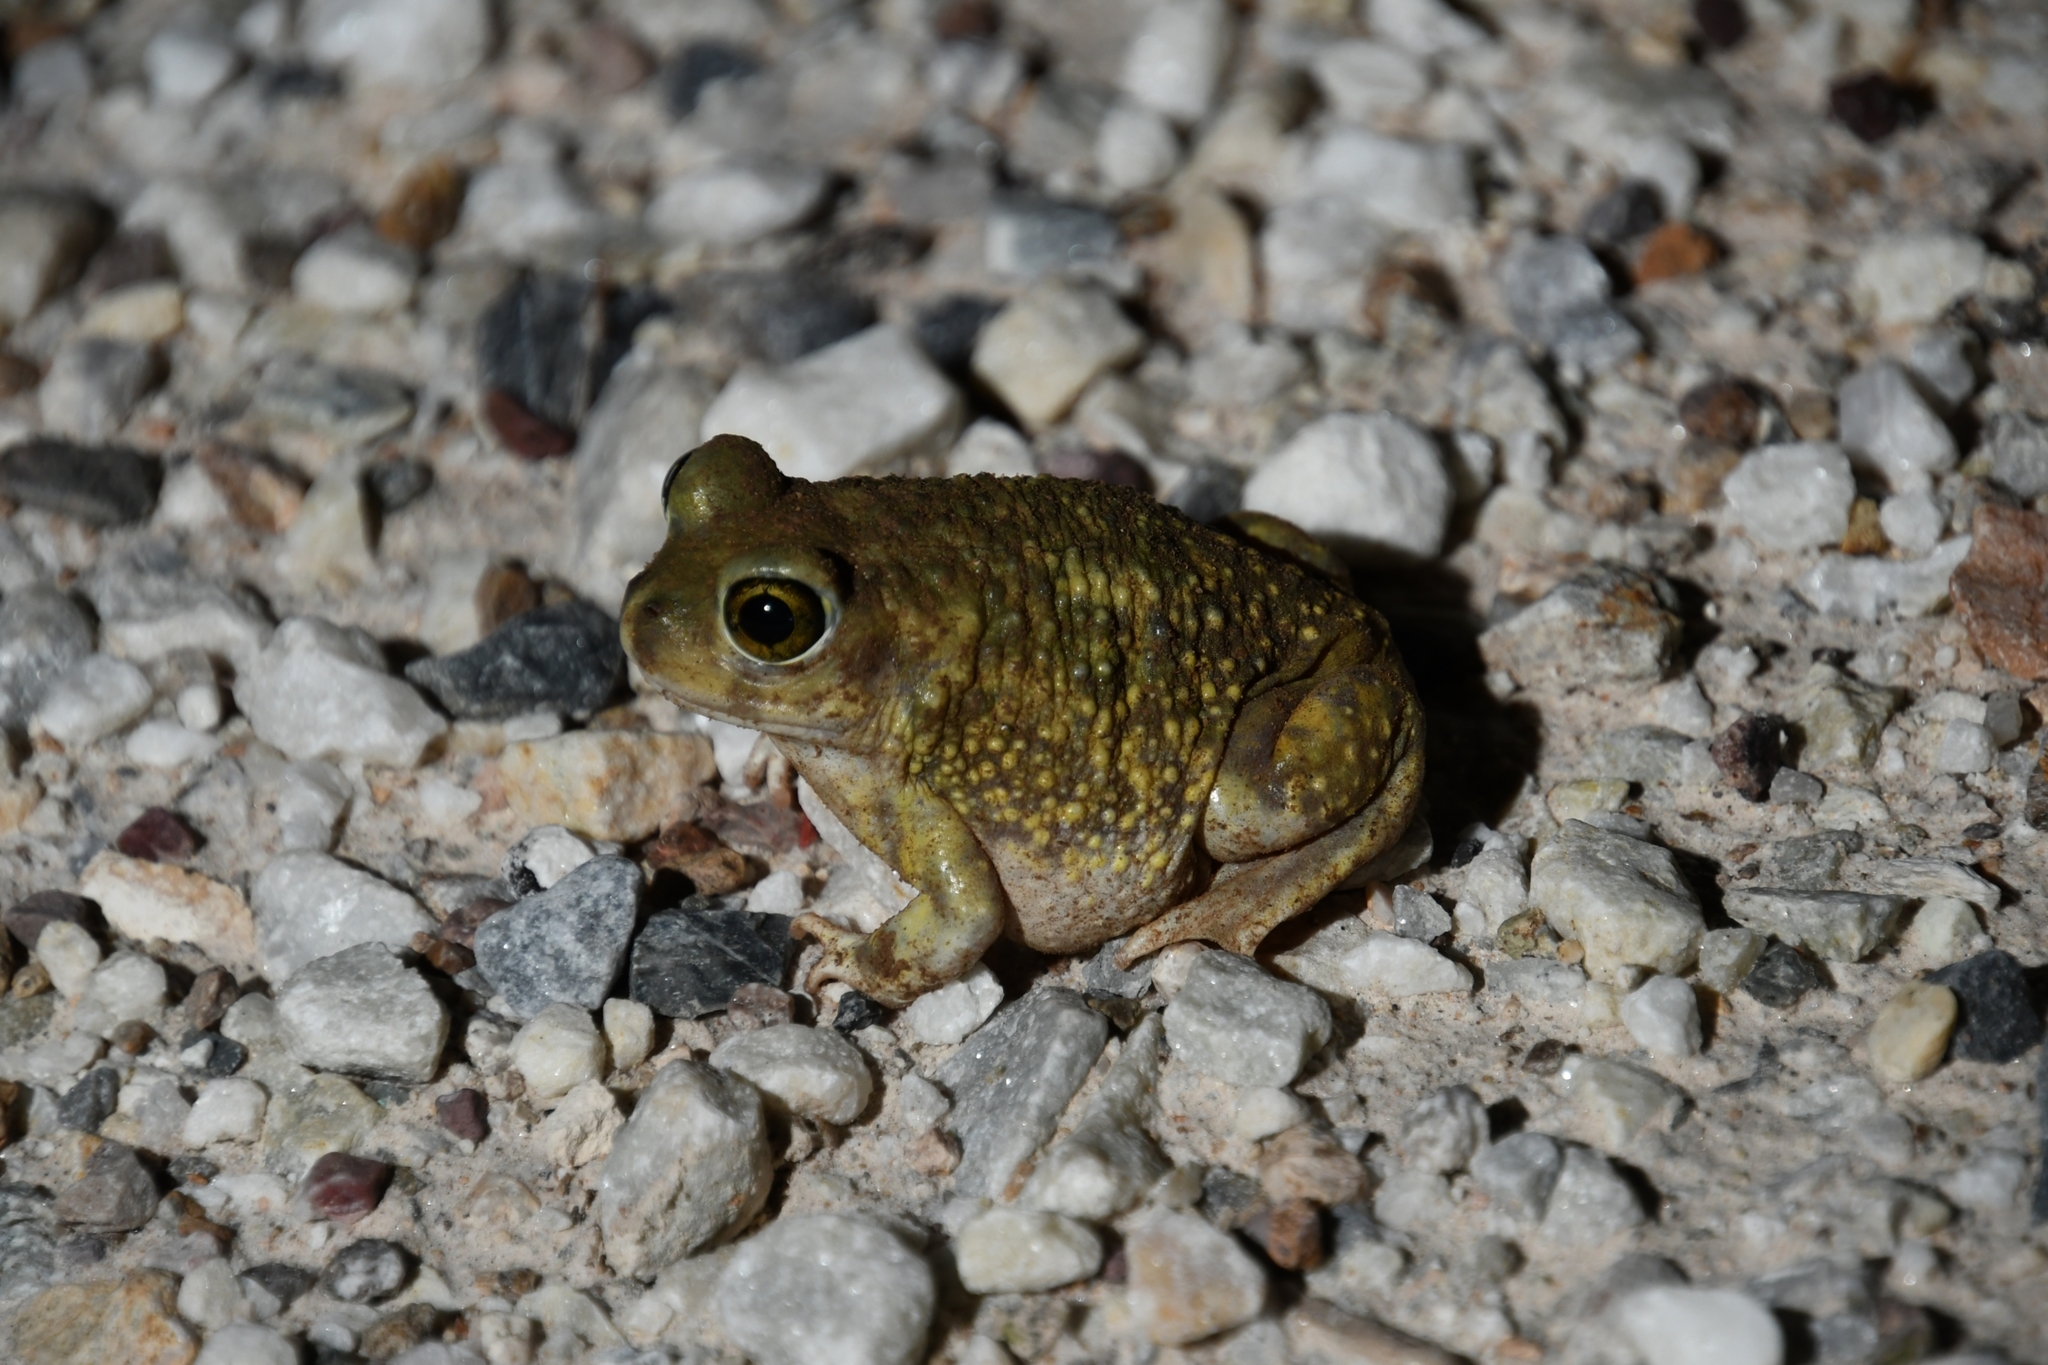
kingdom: Animalia
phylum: Chordata
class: Amphibia
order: Anura
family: Scaphiopodidae
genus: Scaphiopus
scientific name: Scaphiopus couchii
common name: Couch's spadefoot toad
